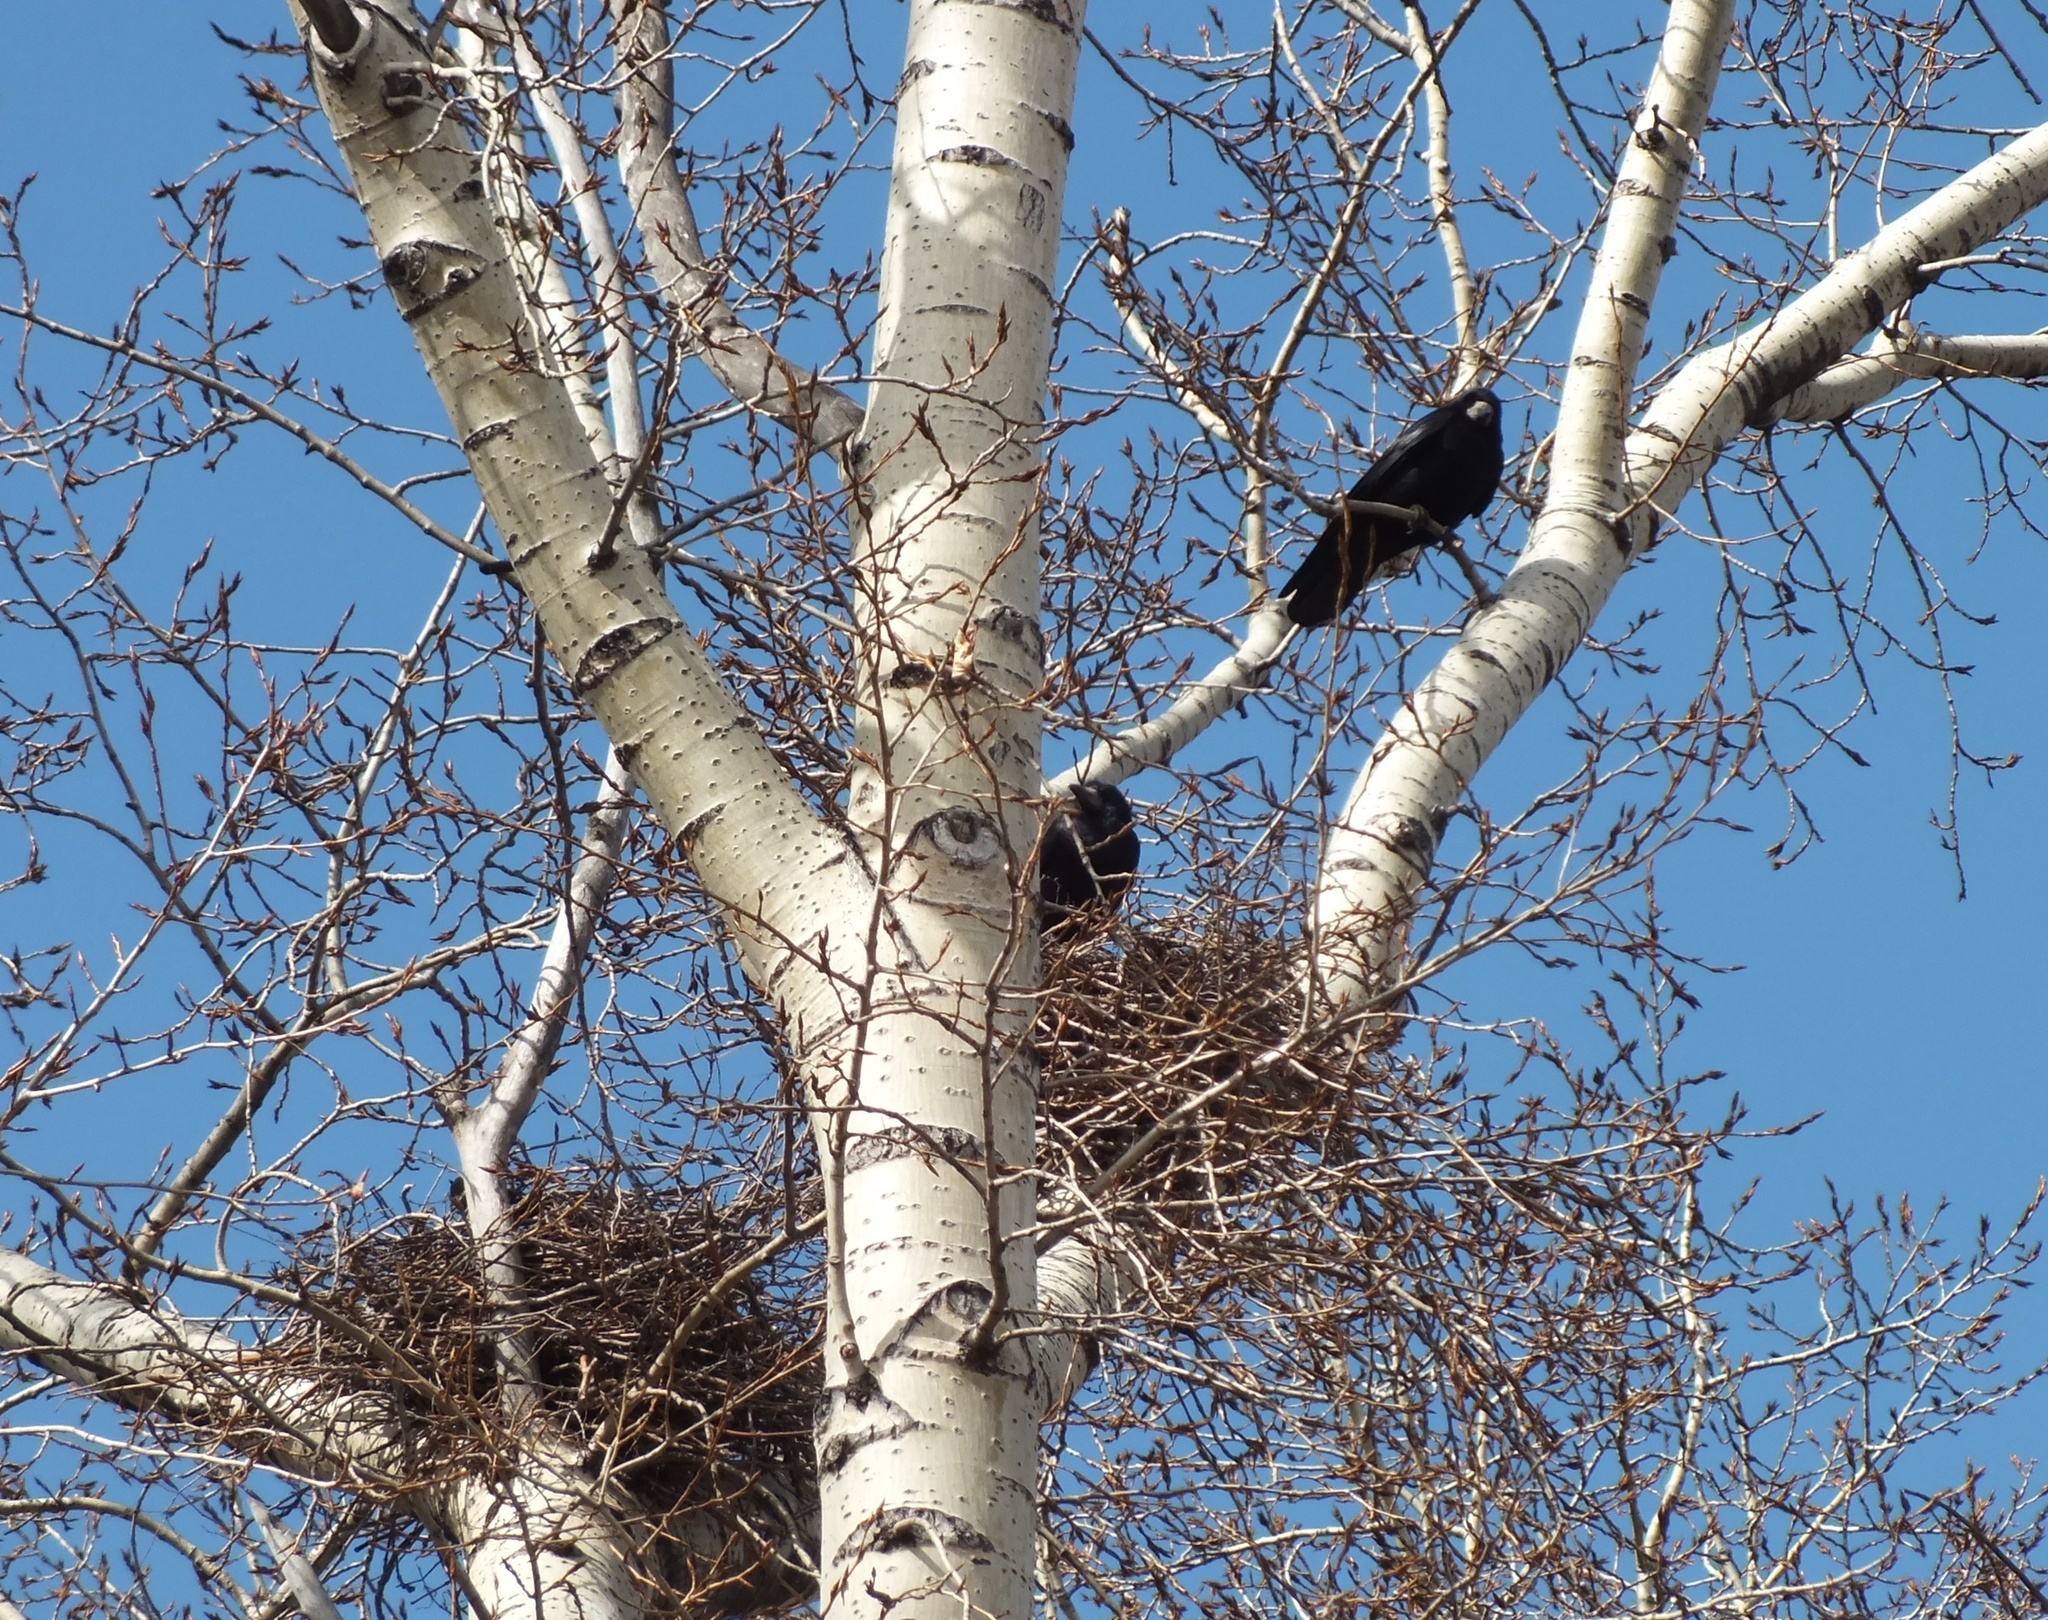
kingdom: Animalia
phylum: Chordata
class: Aves
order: Passeriformes
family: Corvidae
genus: Corvus
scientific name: Corvus frugilegus
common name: Rook
